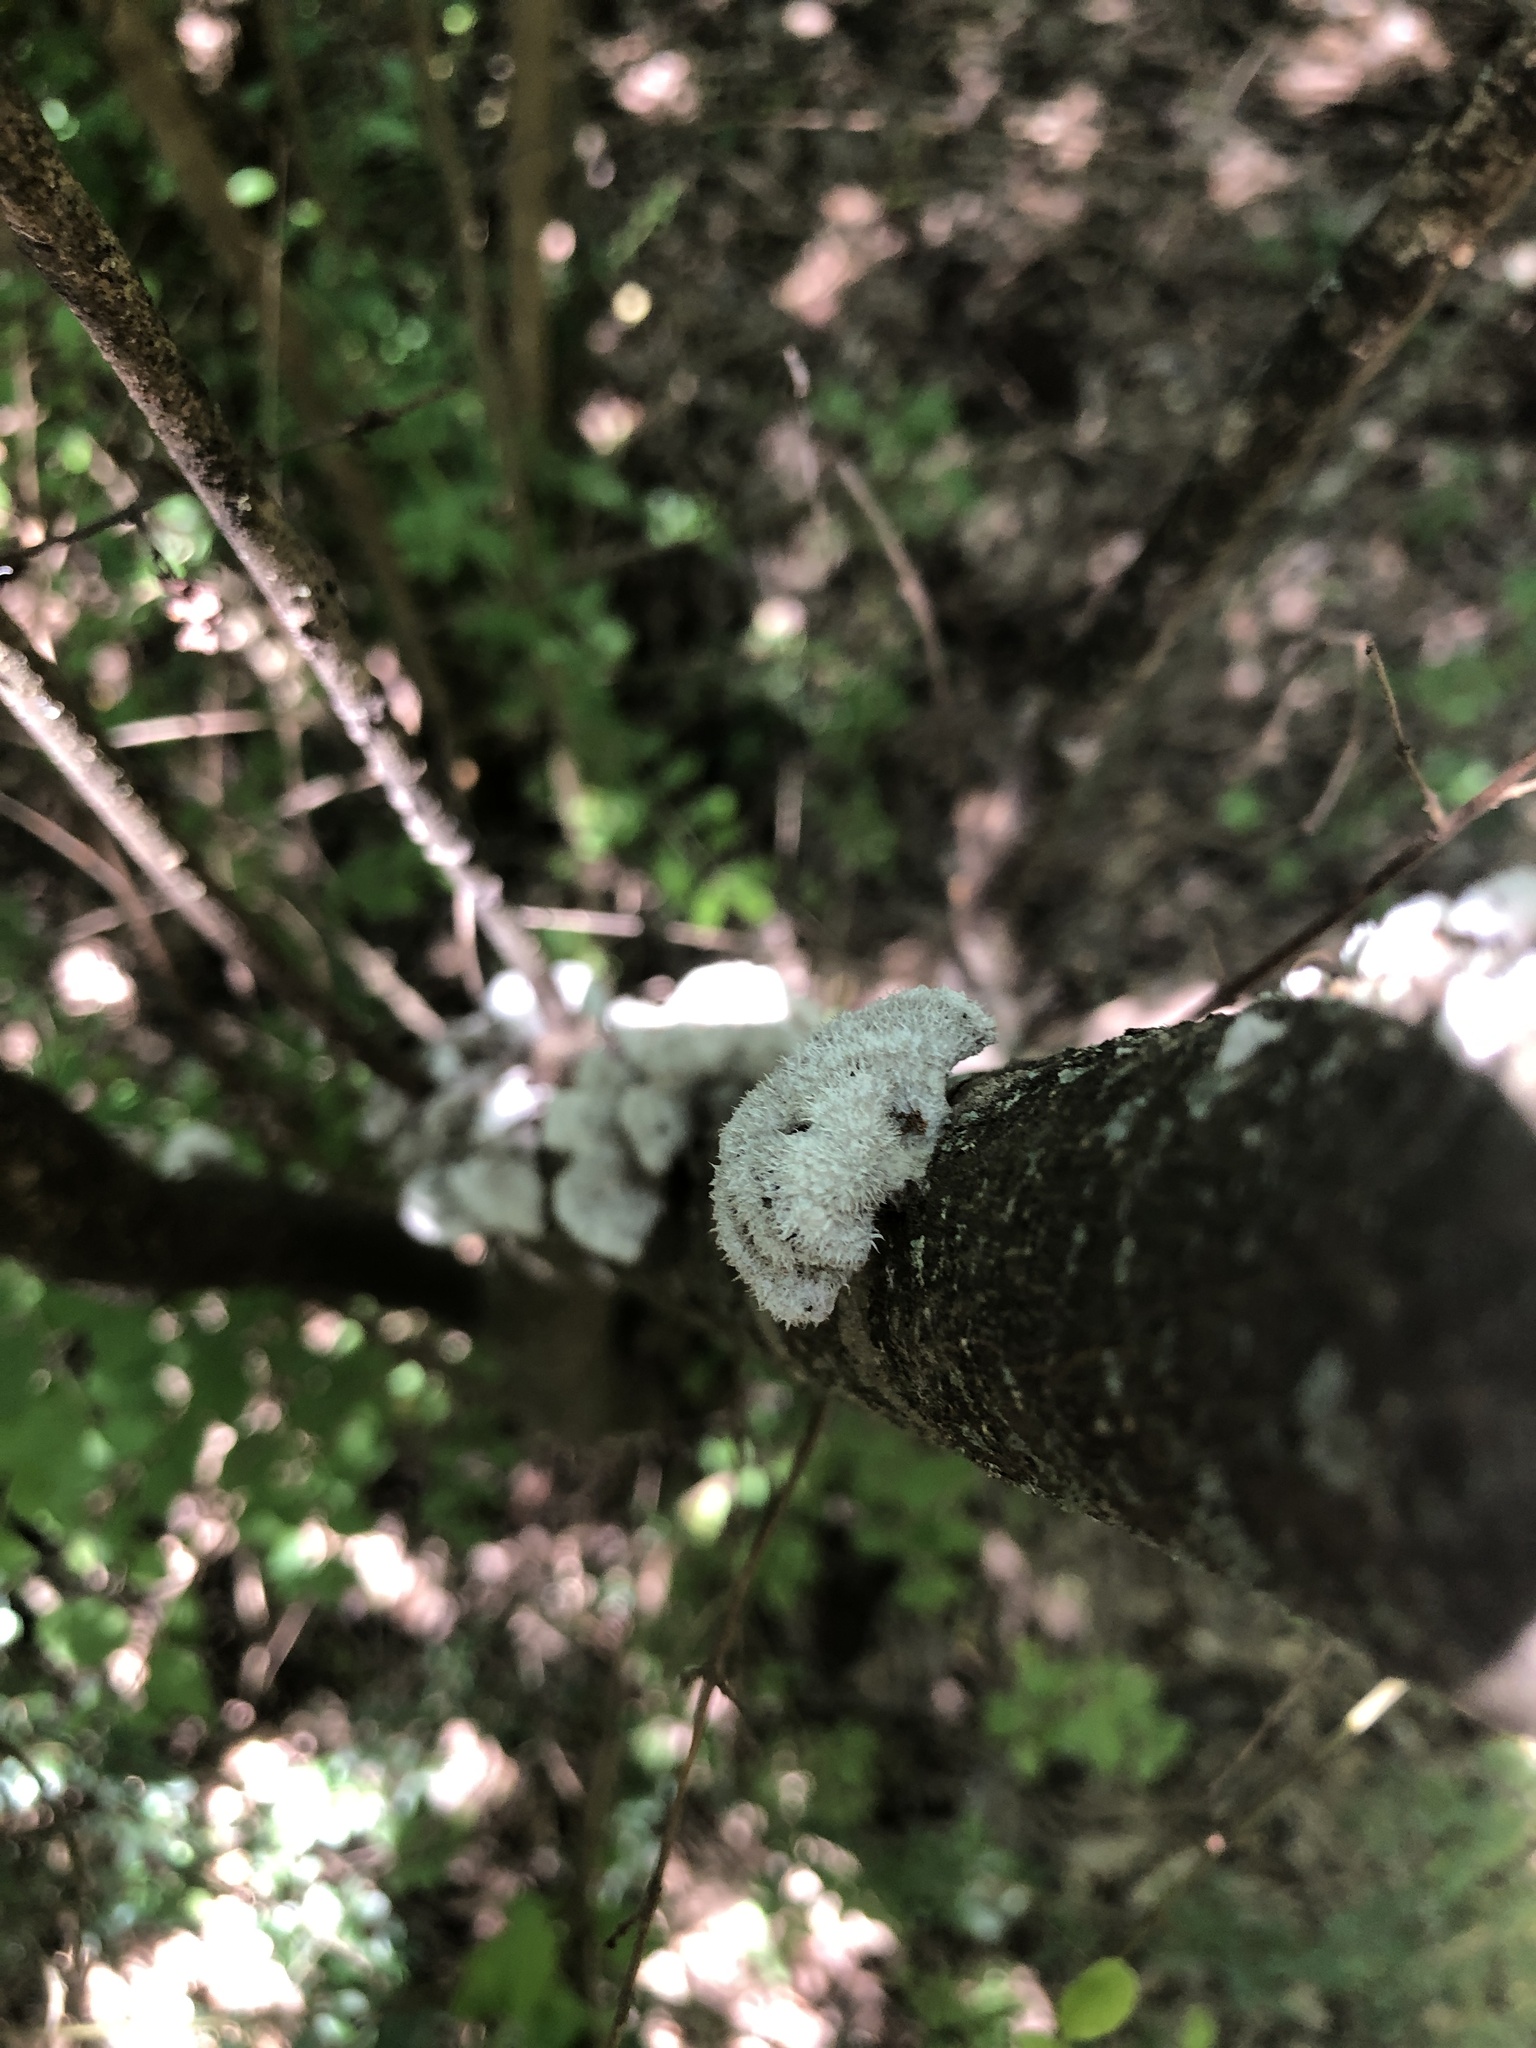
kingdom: Fungi
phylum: Basidiomycota
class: Agaricomycetes
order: Agaricales
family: Schizophyllaceae
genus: Schizophyllum
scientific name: Schizophyllum commune
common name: Common porecrust
